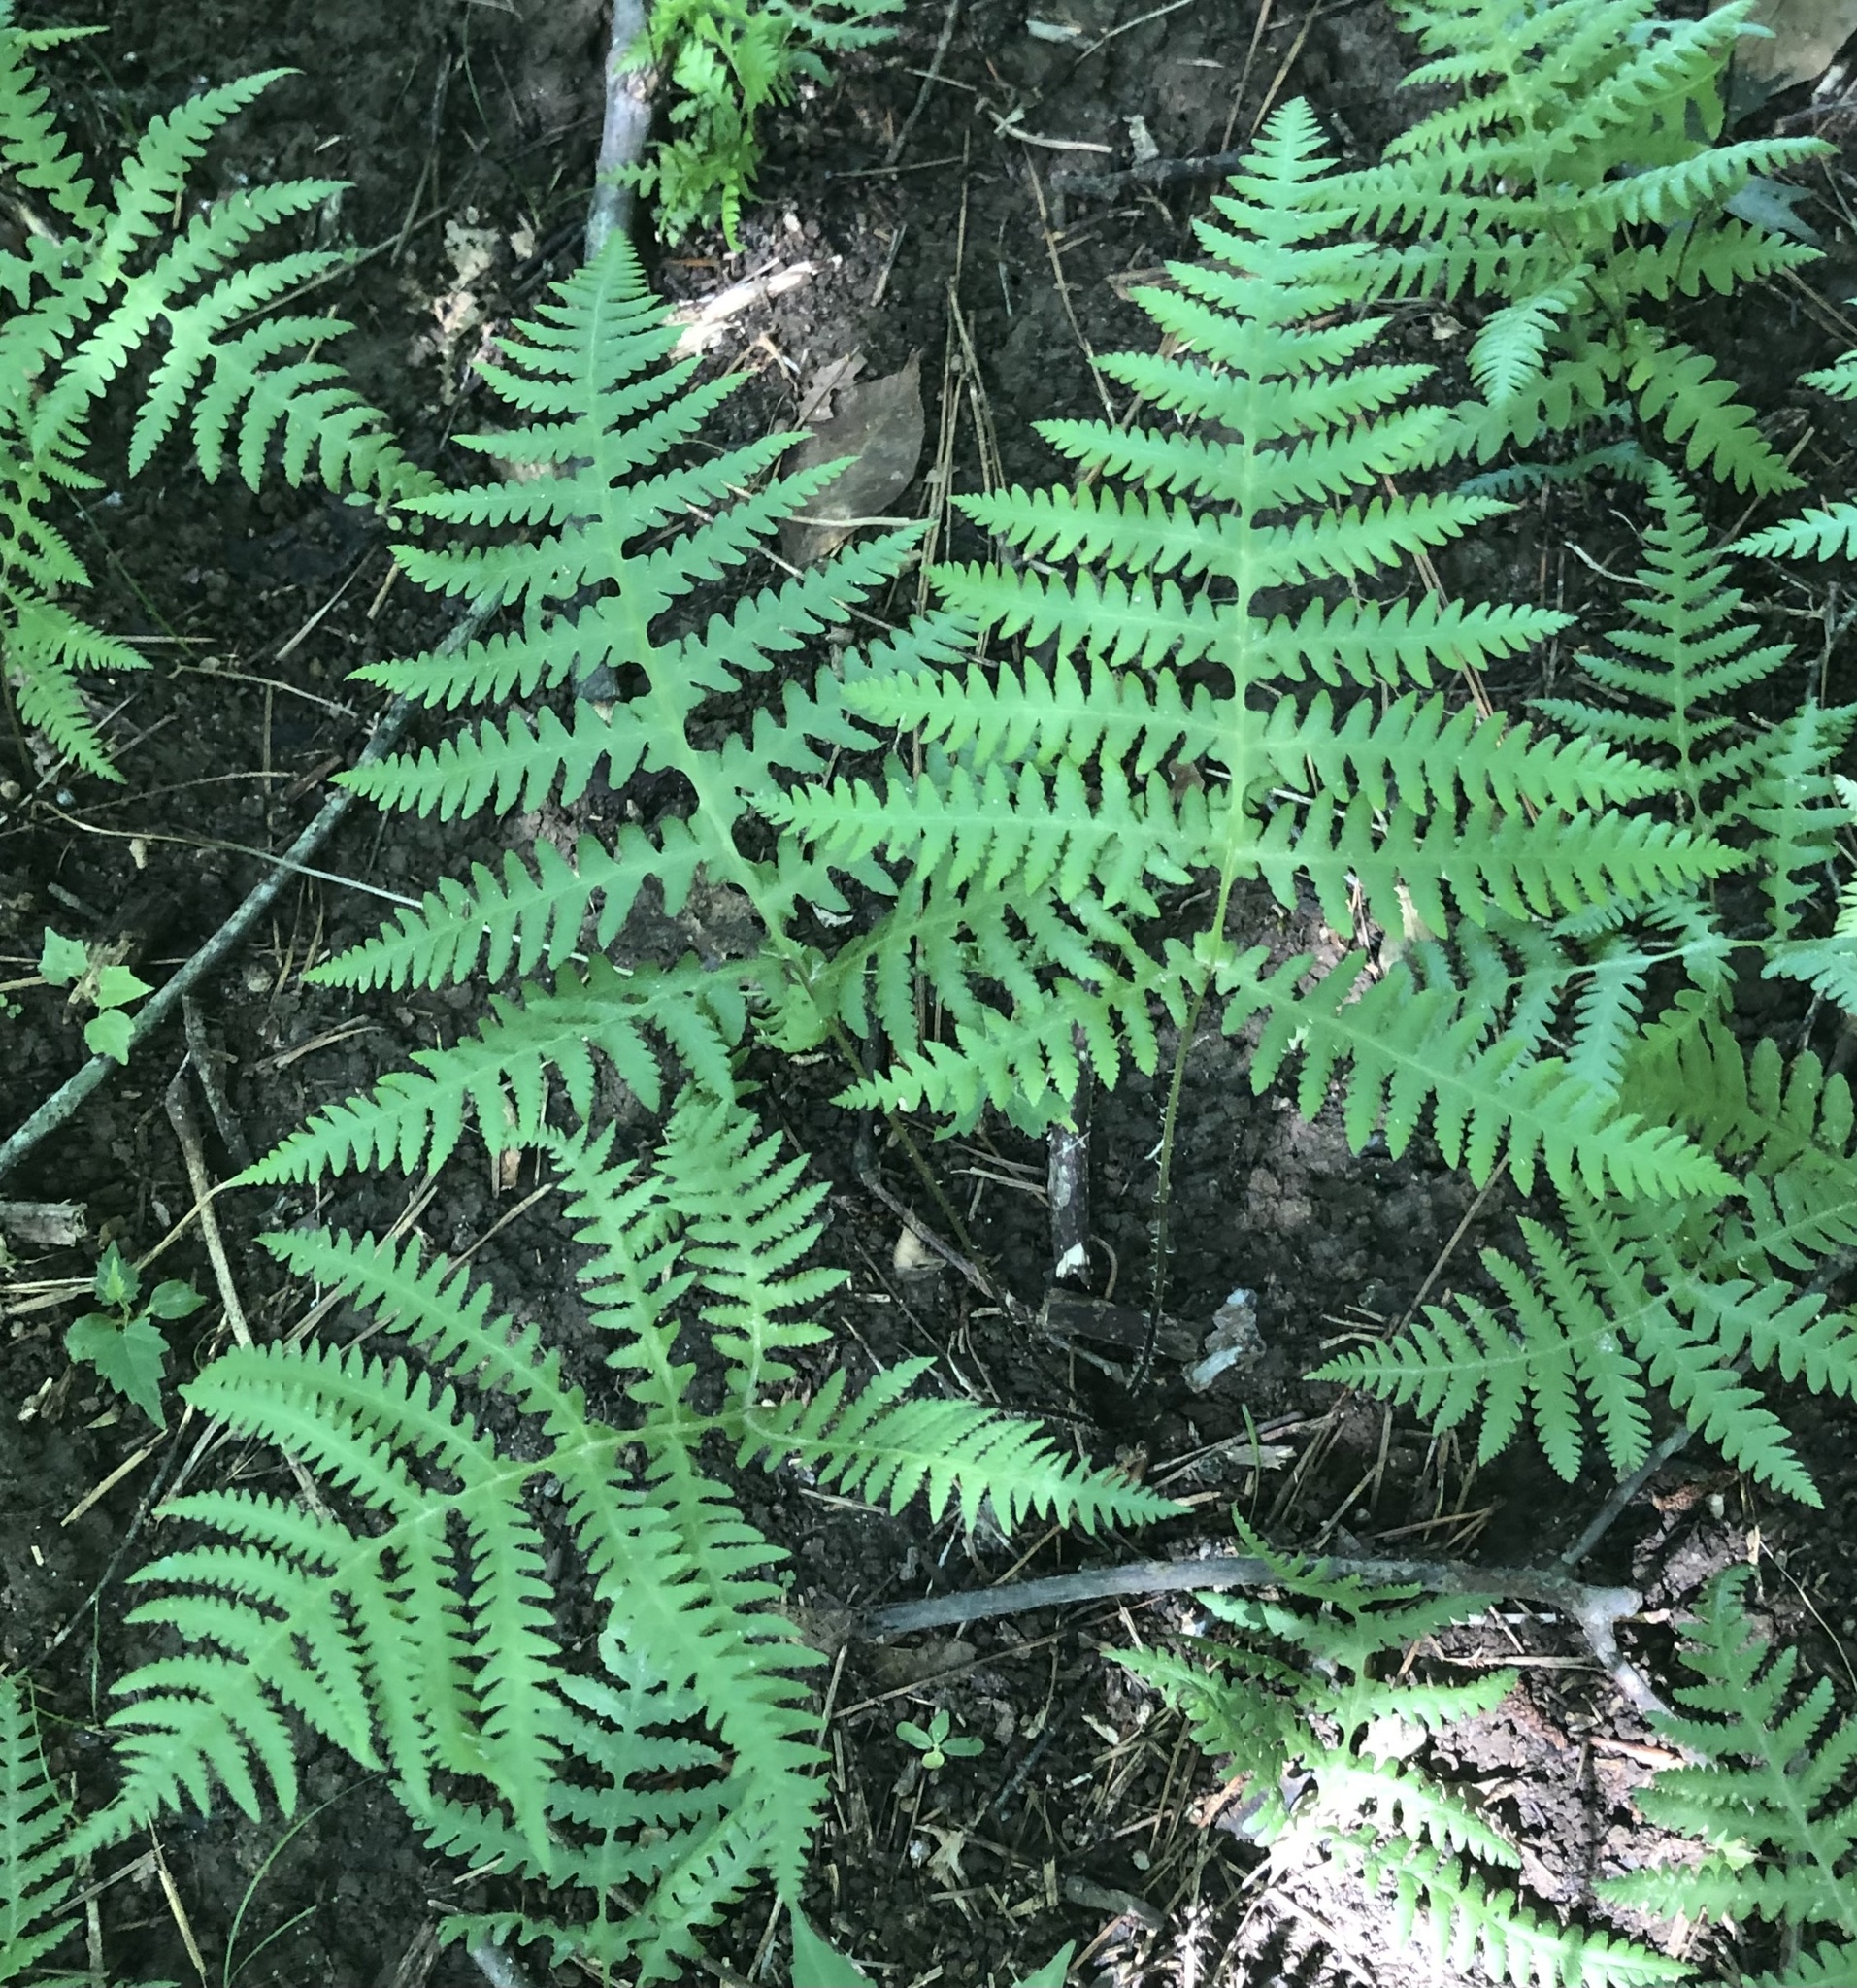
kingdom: Plantae
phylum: Tracheophyta
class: Polypodiopsida
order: Polypodiales
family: Thelypteridaceae
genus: Phegopteris
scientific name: Phegopteris hexagonoptera
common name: Broad beech fern
